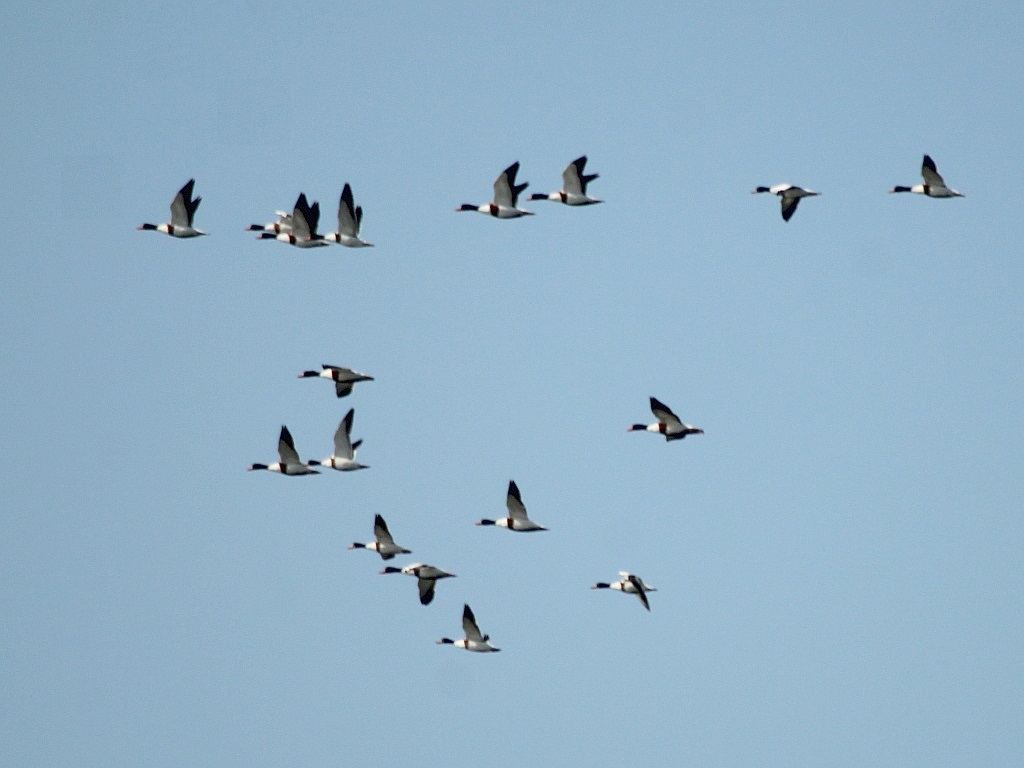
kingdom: Animalia
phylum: Chordata
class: Aves
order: Anseriformes
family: Anatidae
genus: Tadorna
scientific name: Tadorna tadorna
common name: Common shelduck
